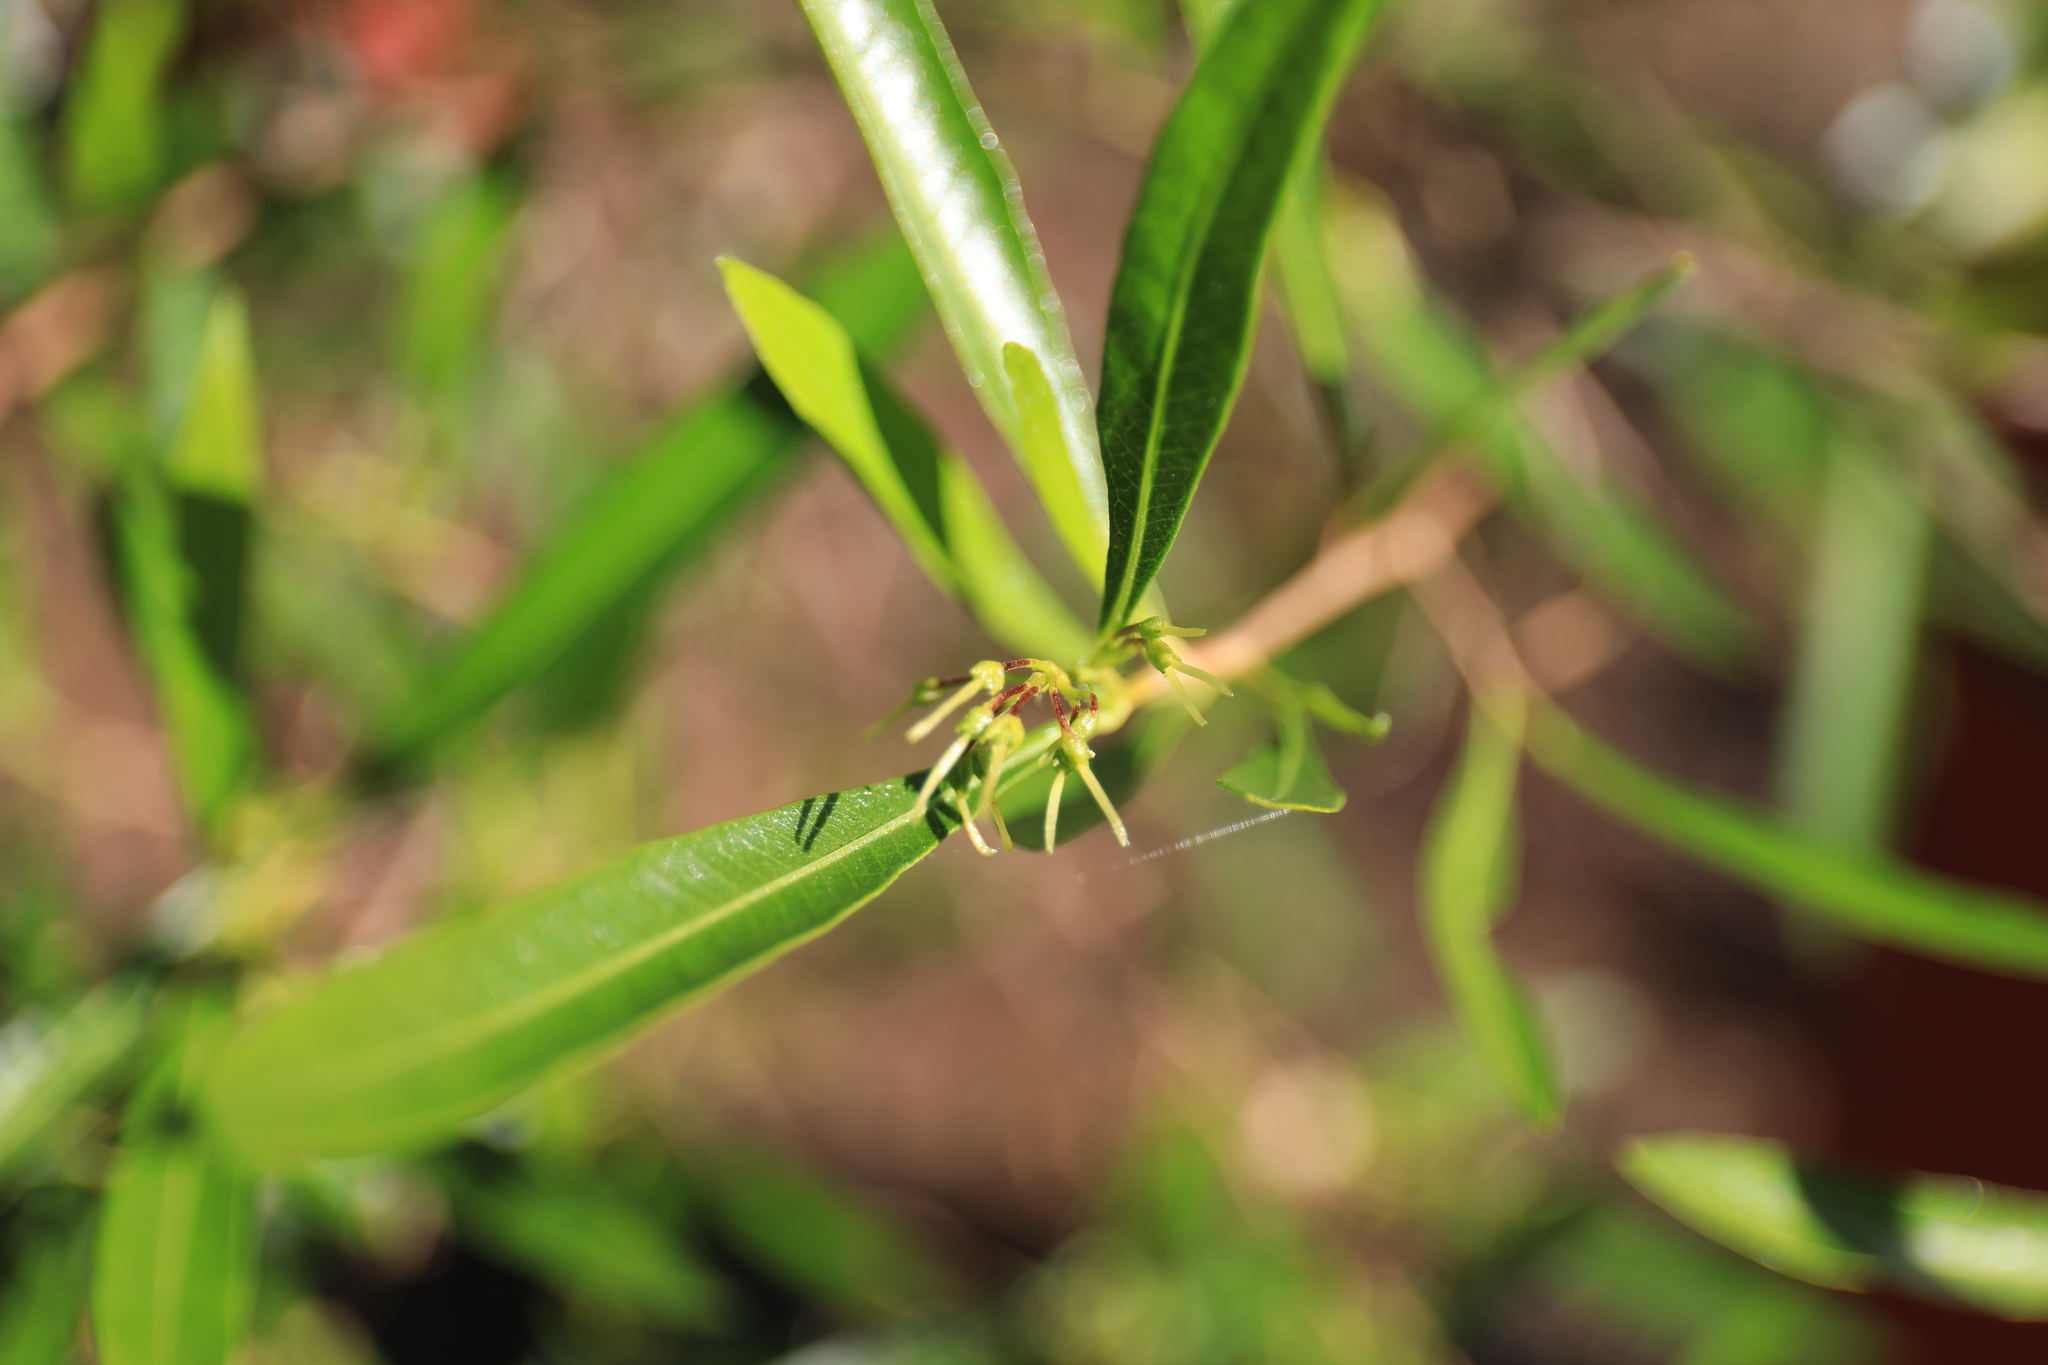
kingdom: Plantae
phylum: Tracheophyta
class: Magnoliopsida
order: Sapindales
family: Sapindaceae
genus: Dodonaea
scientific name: Dodonaea viscosa
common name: Hopbush
